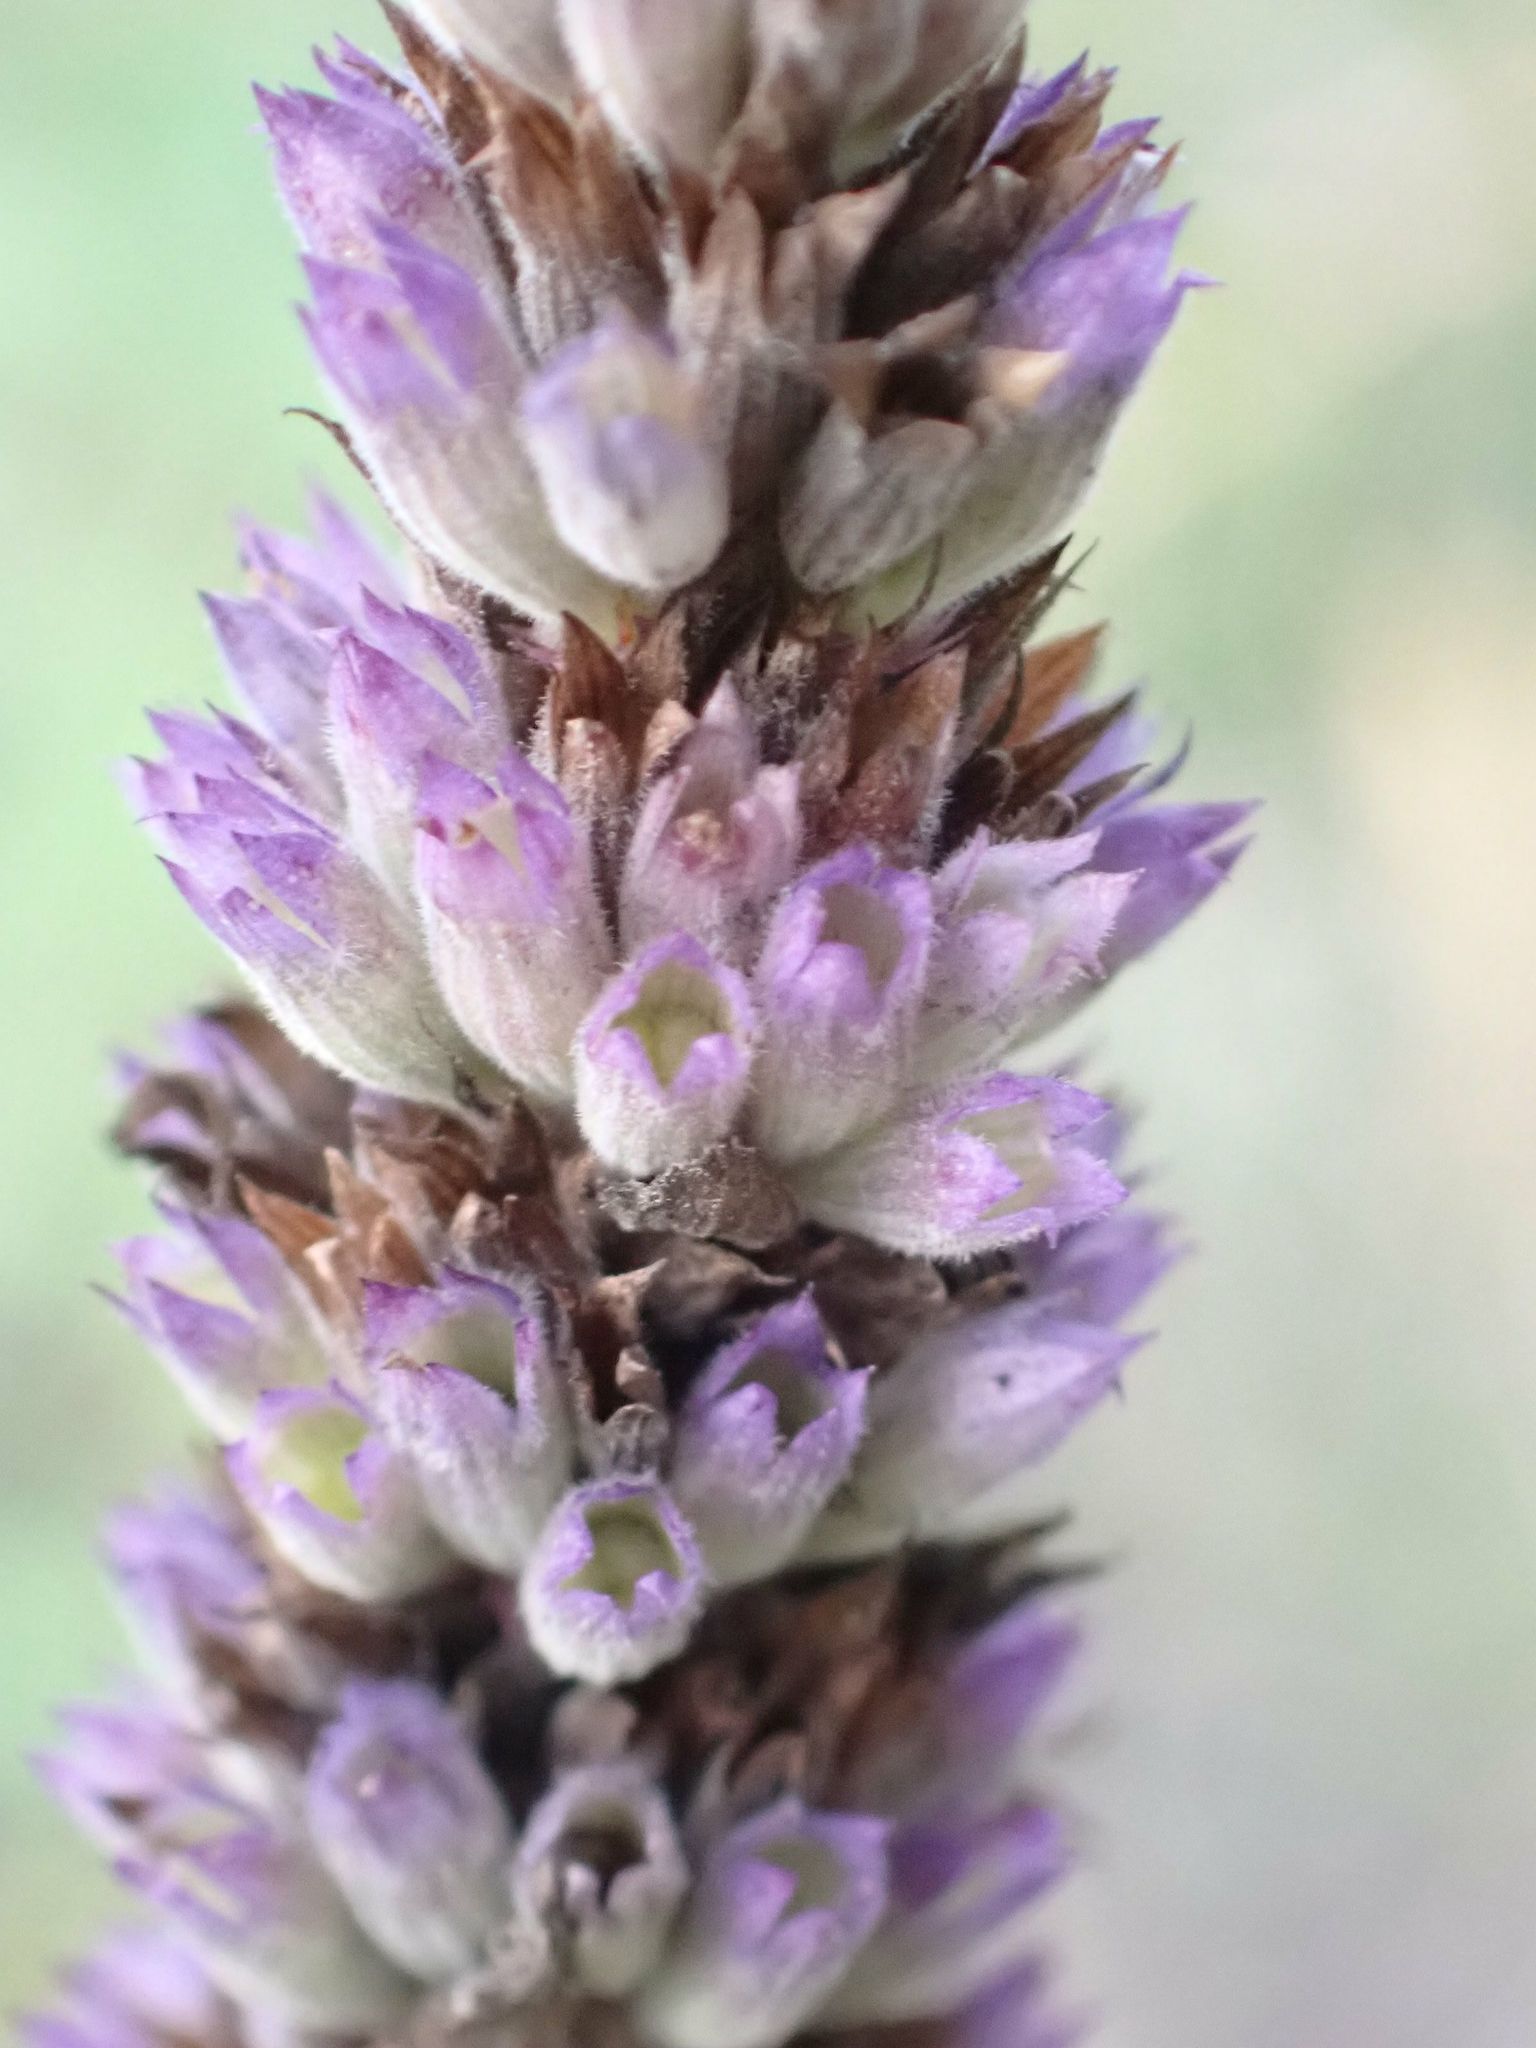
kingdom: Plantae
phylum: Tracheophyta
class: Magnoliopsida
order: Lamiales
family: Lamiaceae
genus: Agastache
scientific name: Agastache foeniculum
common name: Anise hyssop
